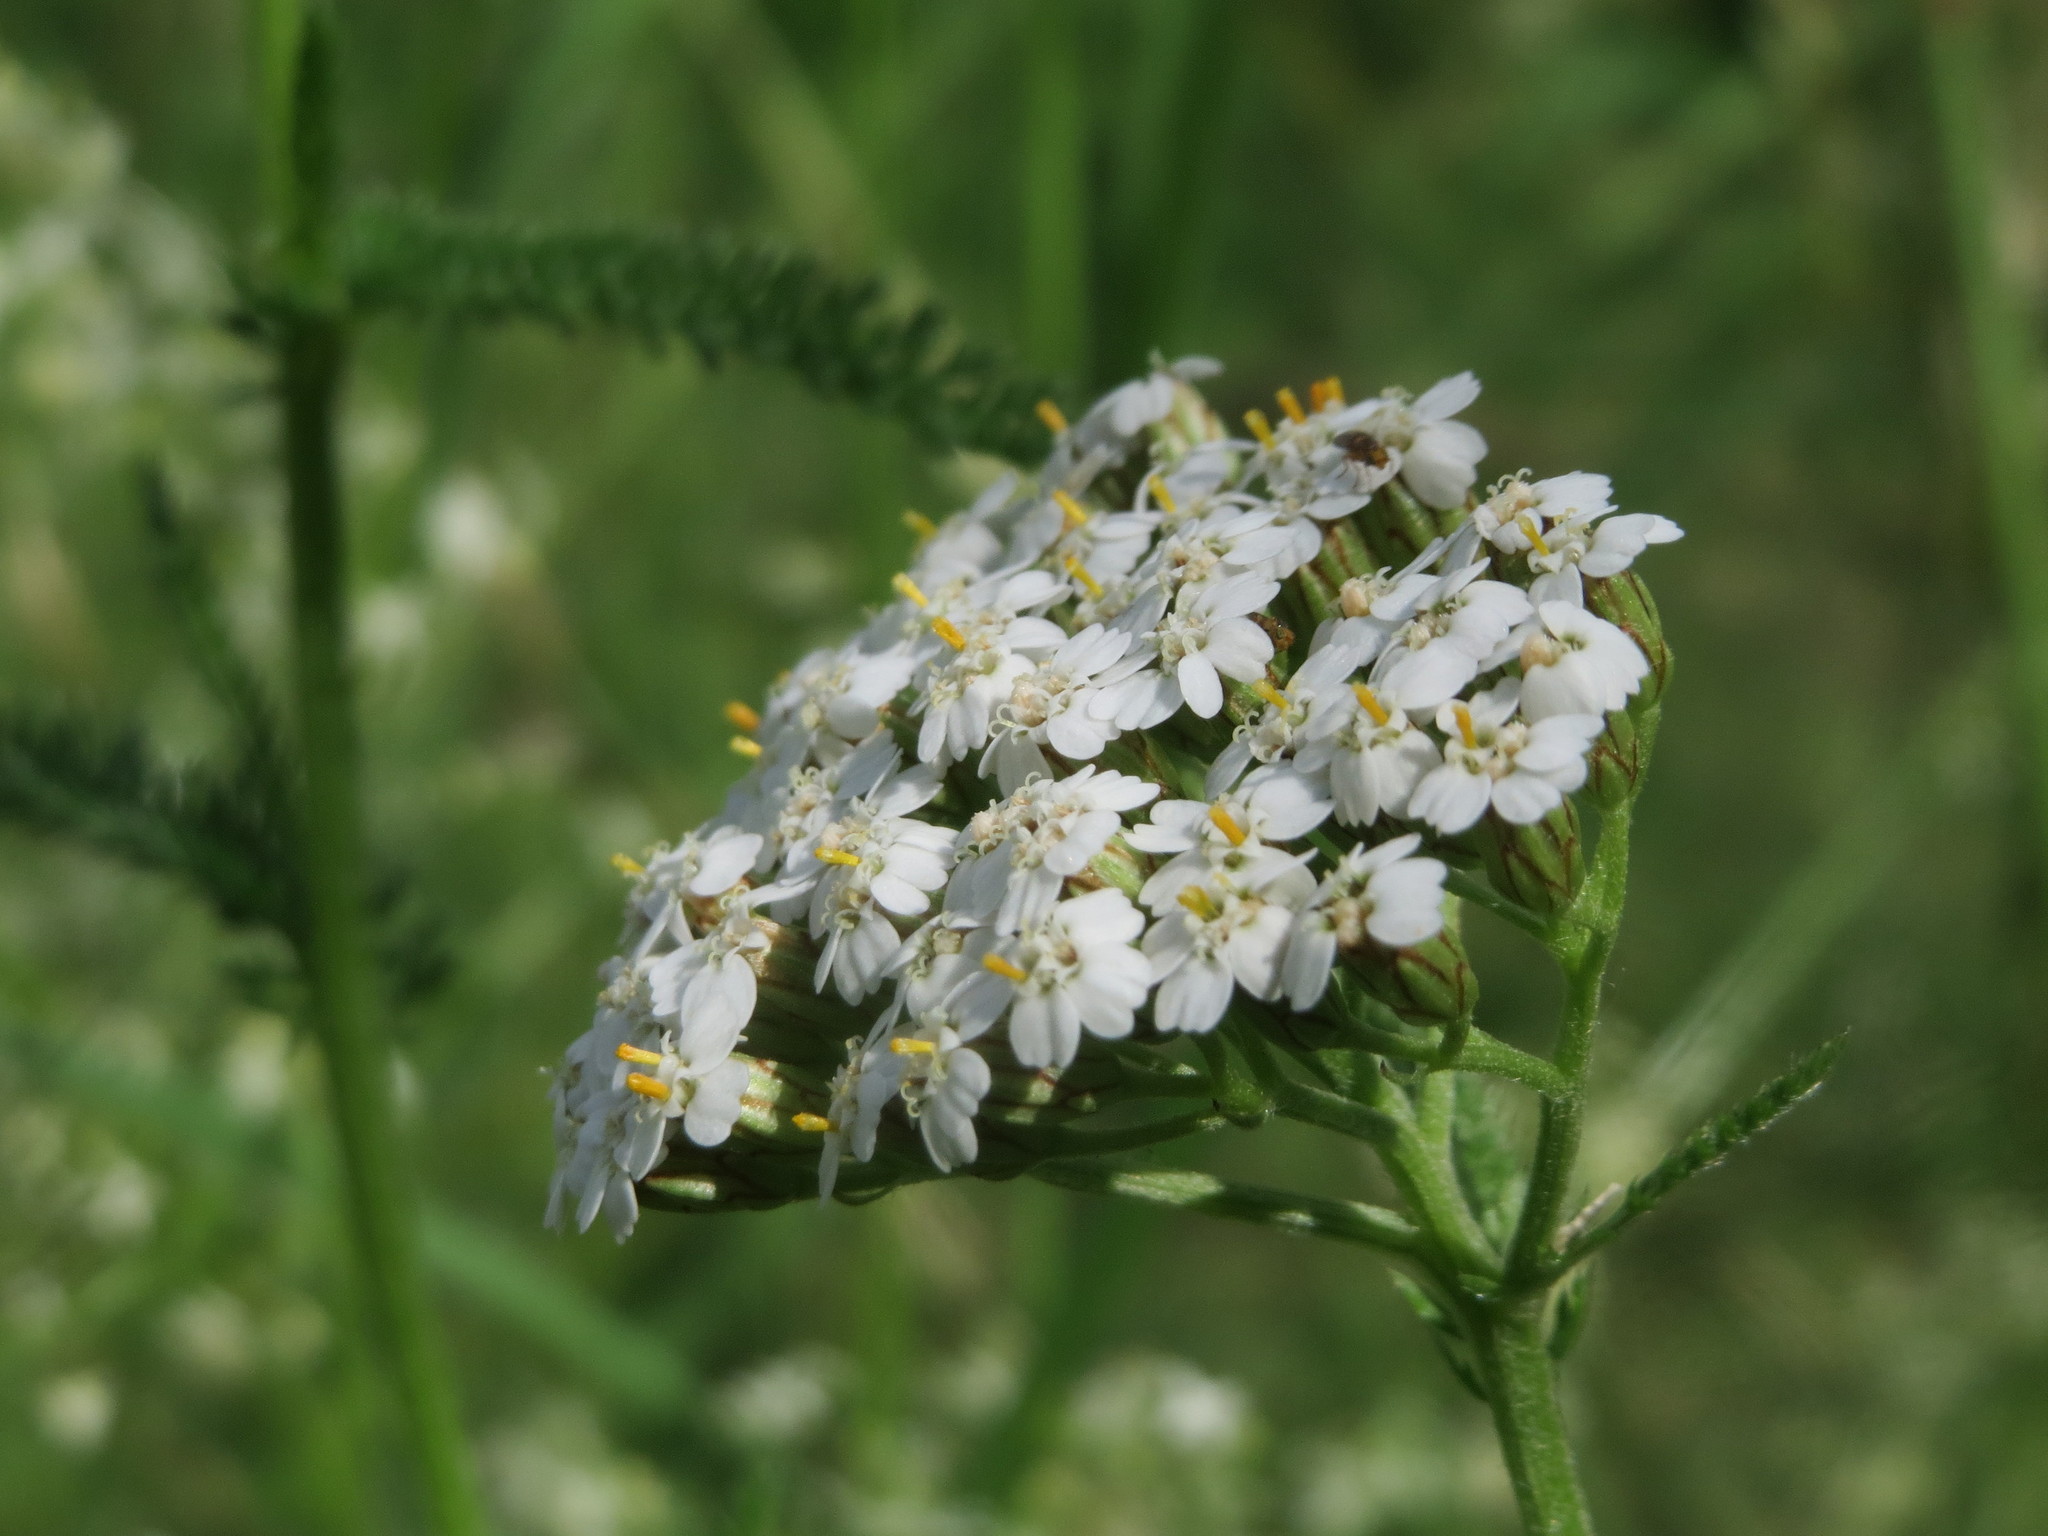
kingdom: Plantae
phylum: Tracheophyta
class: Magnoliopsida
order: Asterales
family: Asteraceae
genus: Achillea
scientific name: Achillea millefolium
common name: Yarrow
